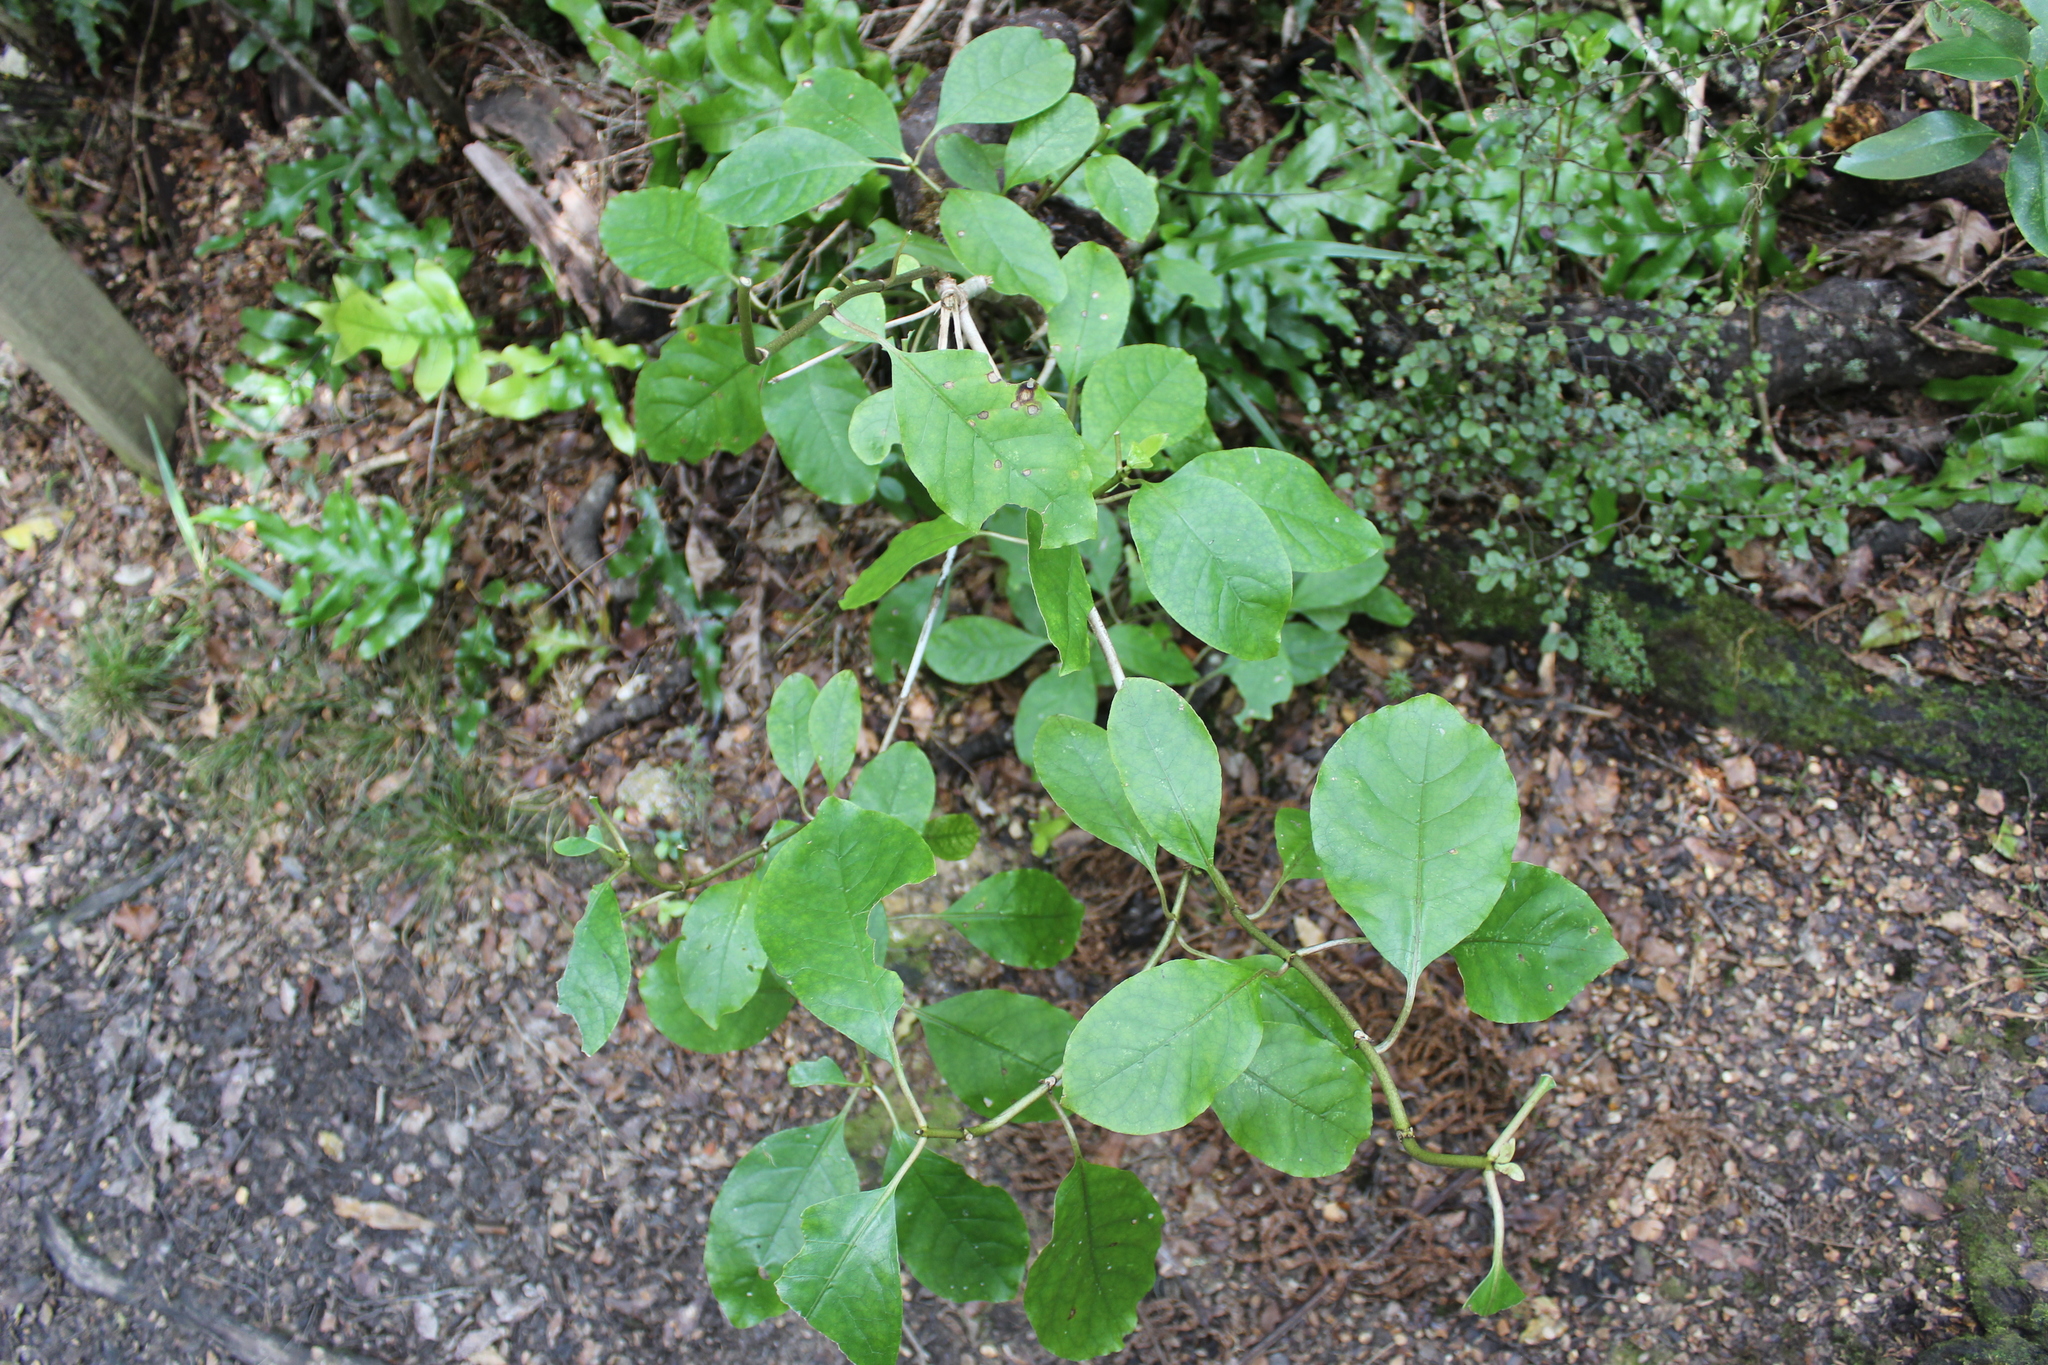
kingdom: Plantae
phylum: Tracheophyta
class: Magnoliopsida
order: Gentianales
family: Rubiaceae
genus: Coprosma
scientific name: Coprosma autumnalis
